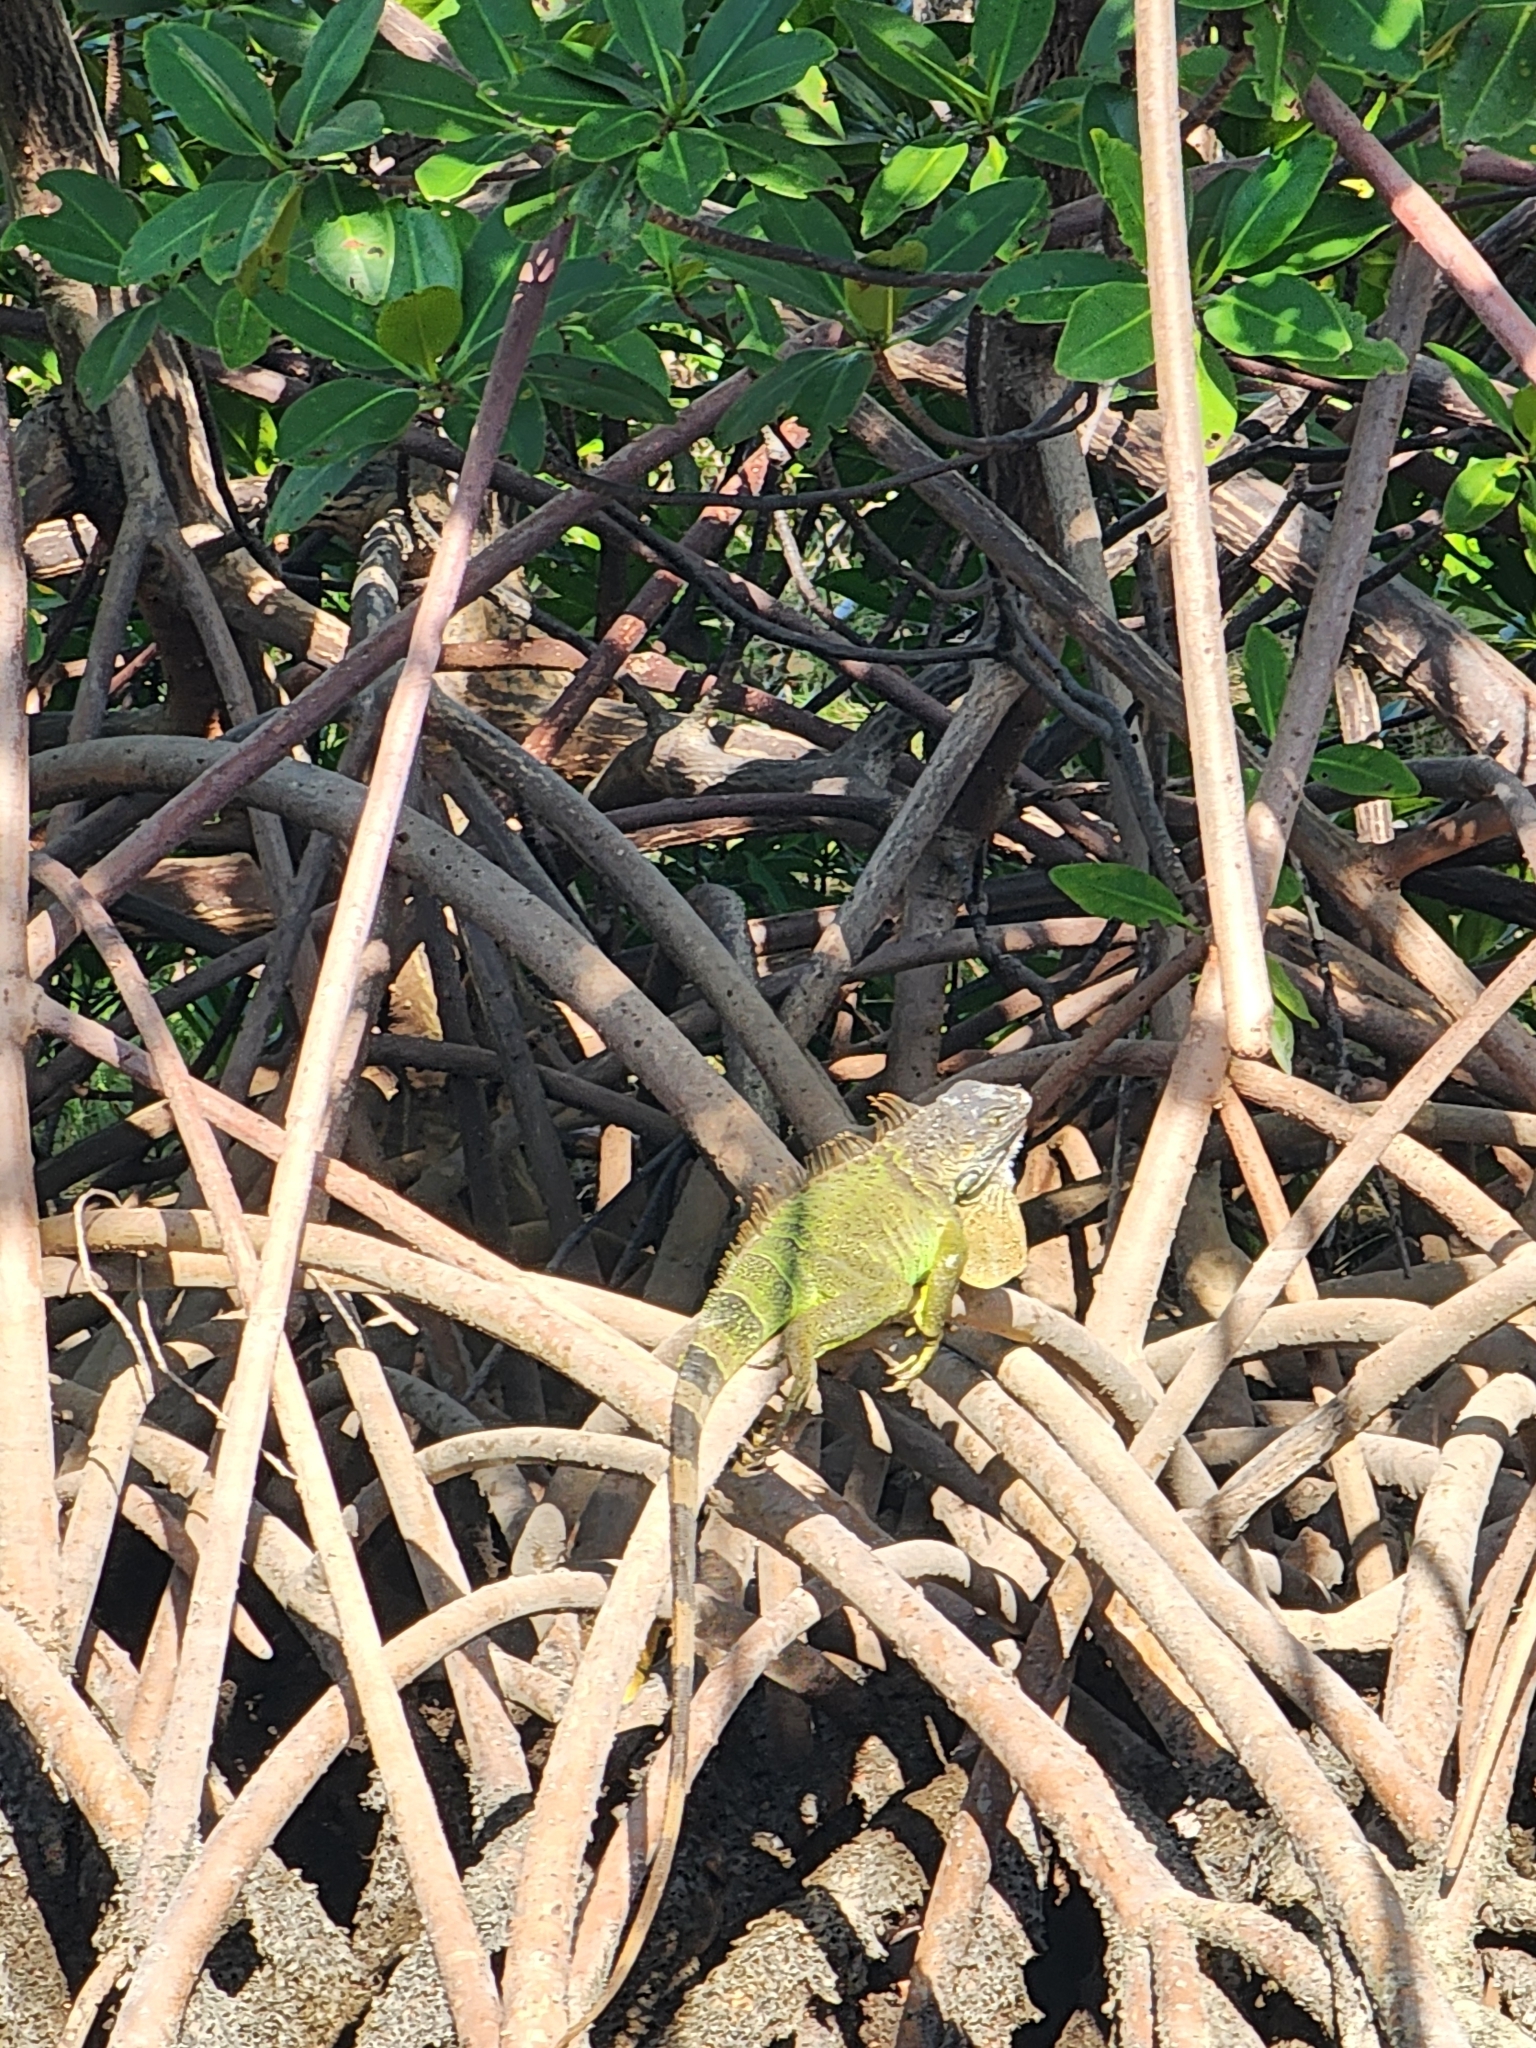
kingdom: Animalia
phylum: Chordata
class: Squamata
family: Iguanidae
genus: Iguana
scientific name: Iguana iguana
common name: Green iguana
